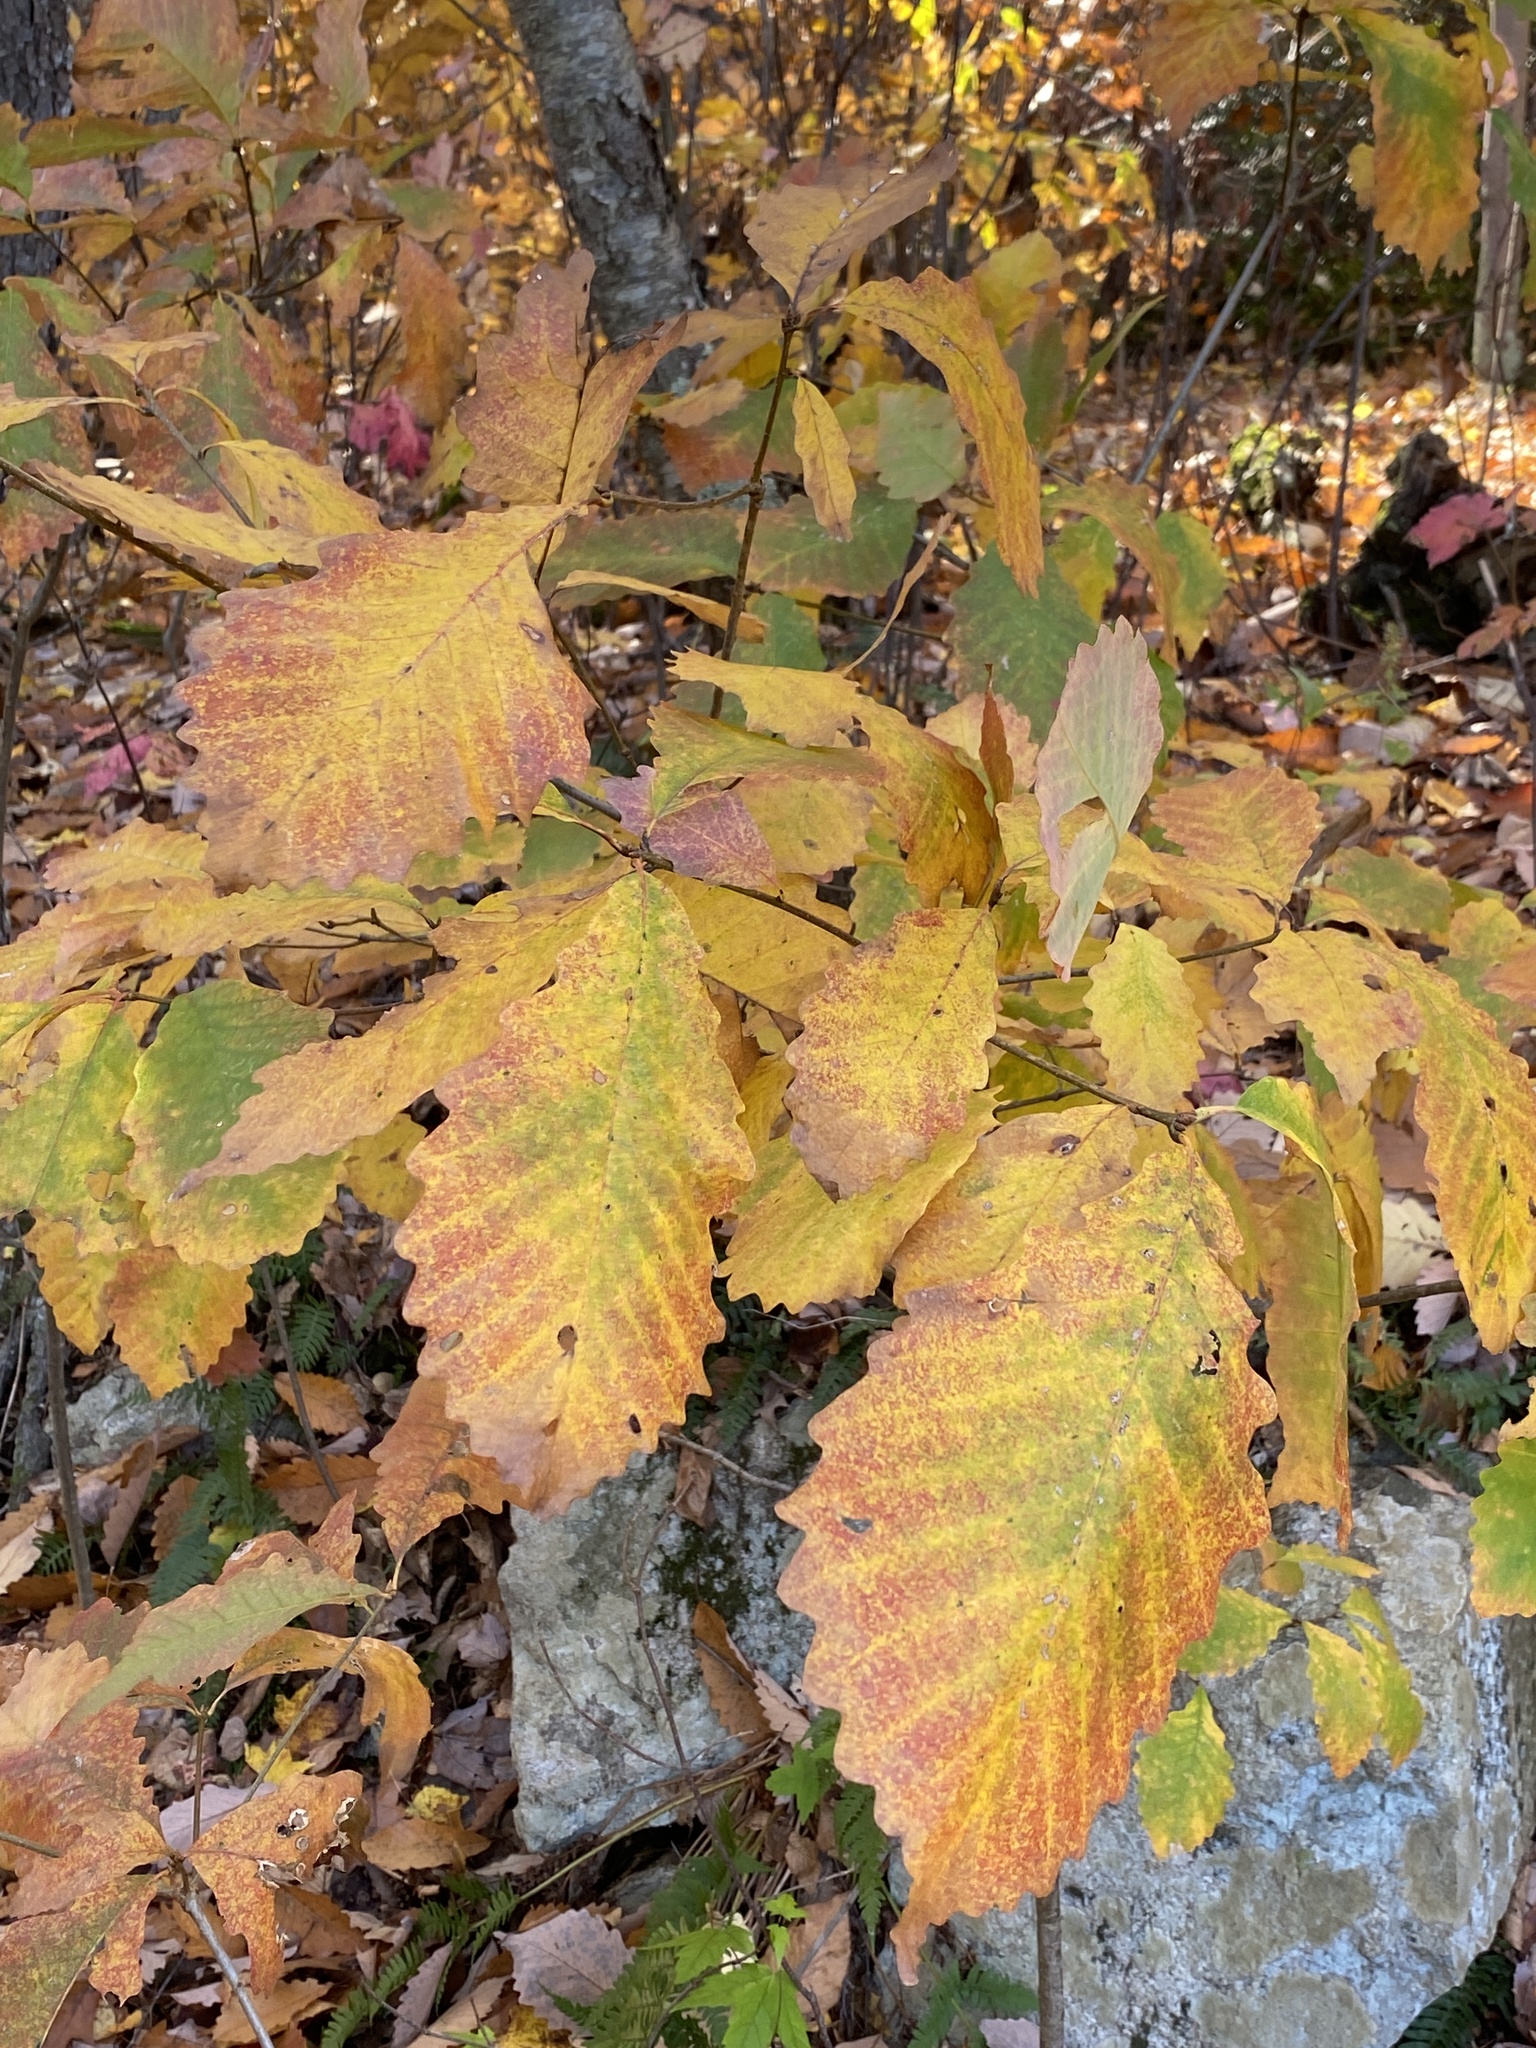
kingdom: Plantae
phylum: Tracheophyta
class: Magnoliopsida
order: Fagales
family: Fagaceae
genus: Quercus
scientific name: Quercus montana
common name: Chestnut oak
